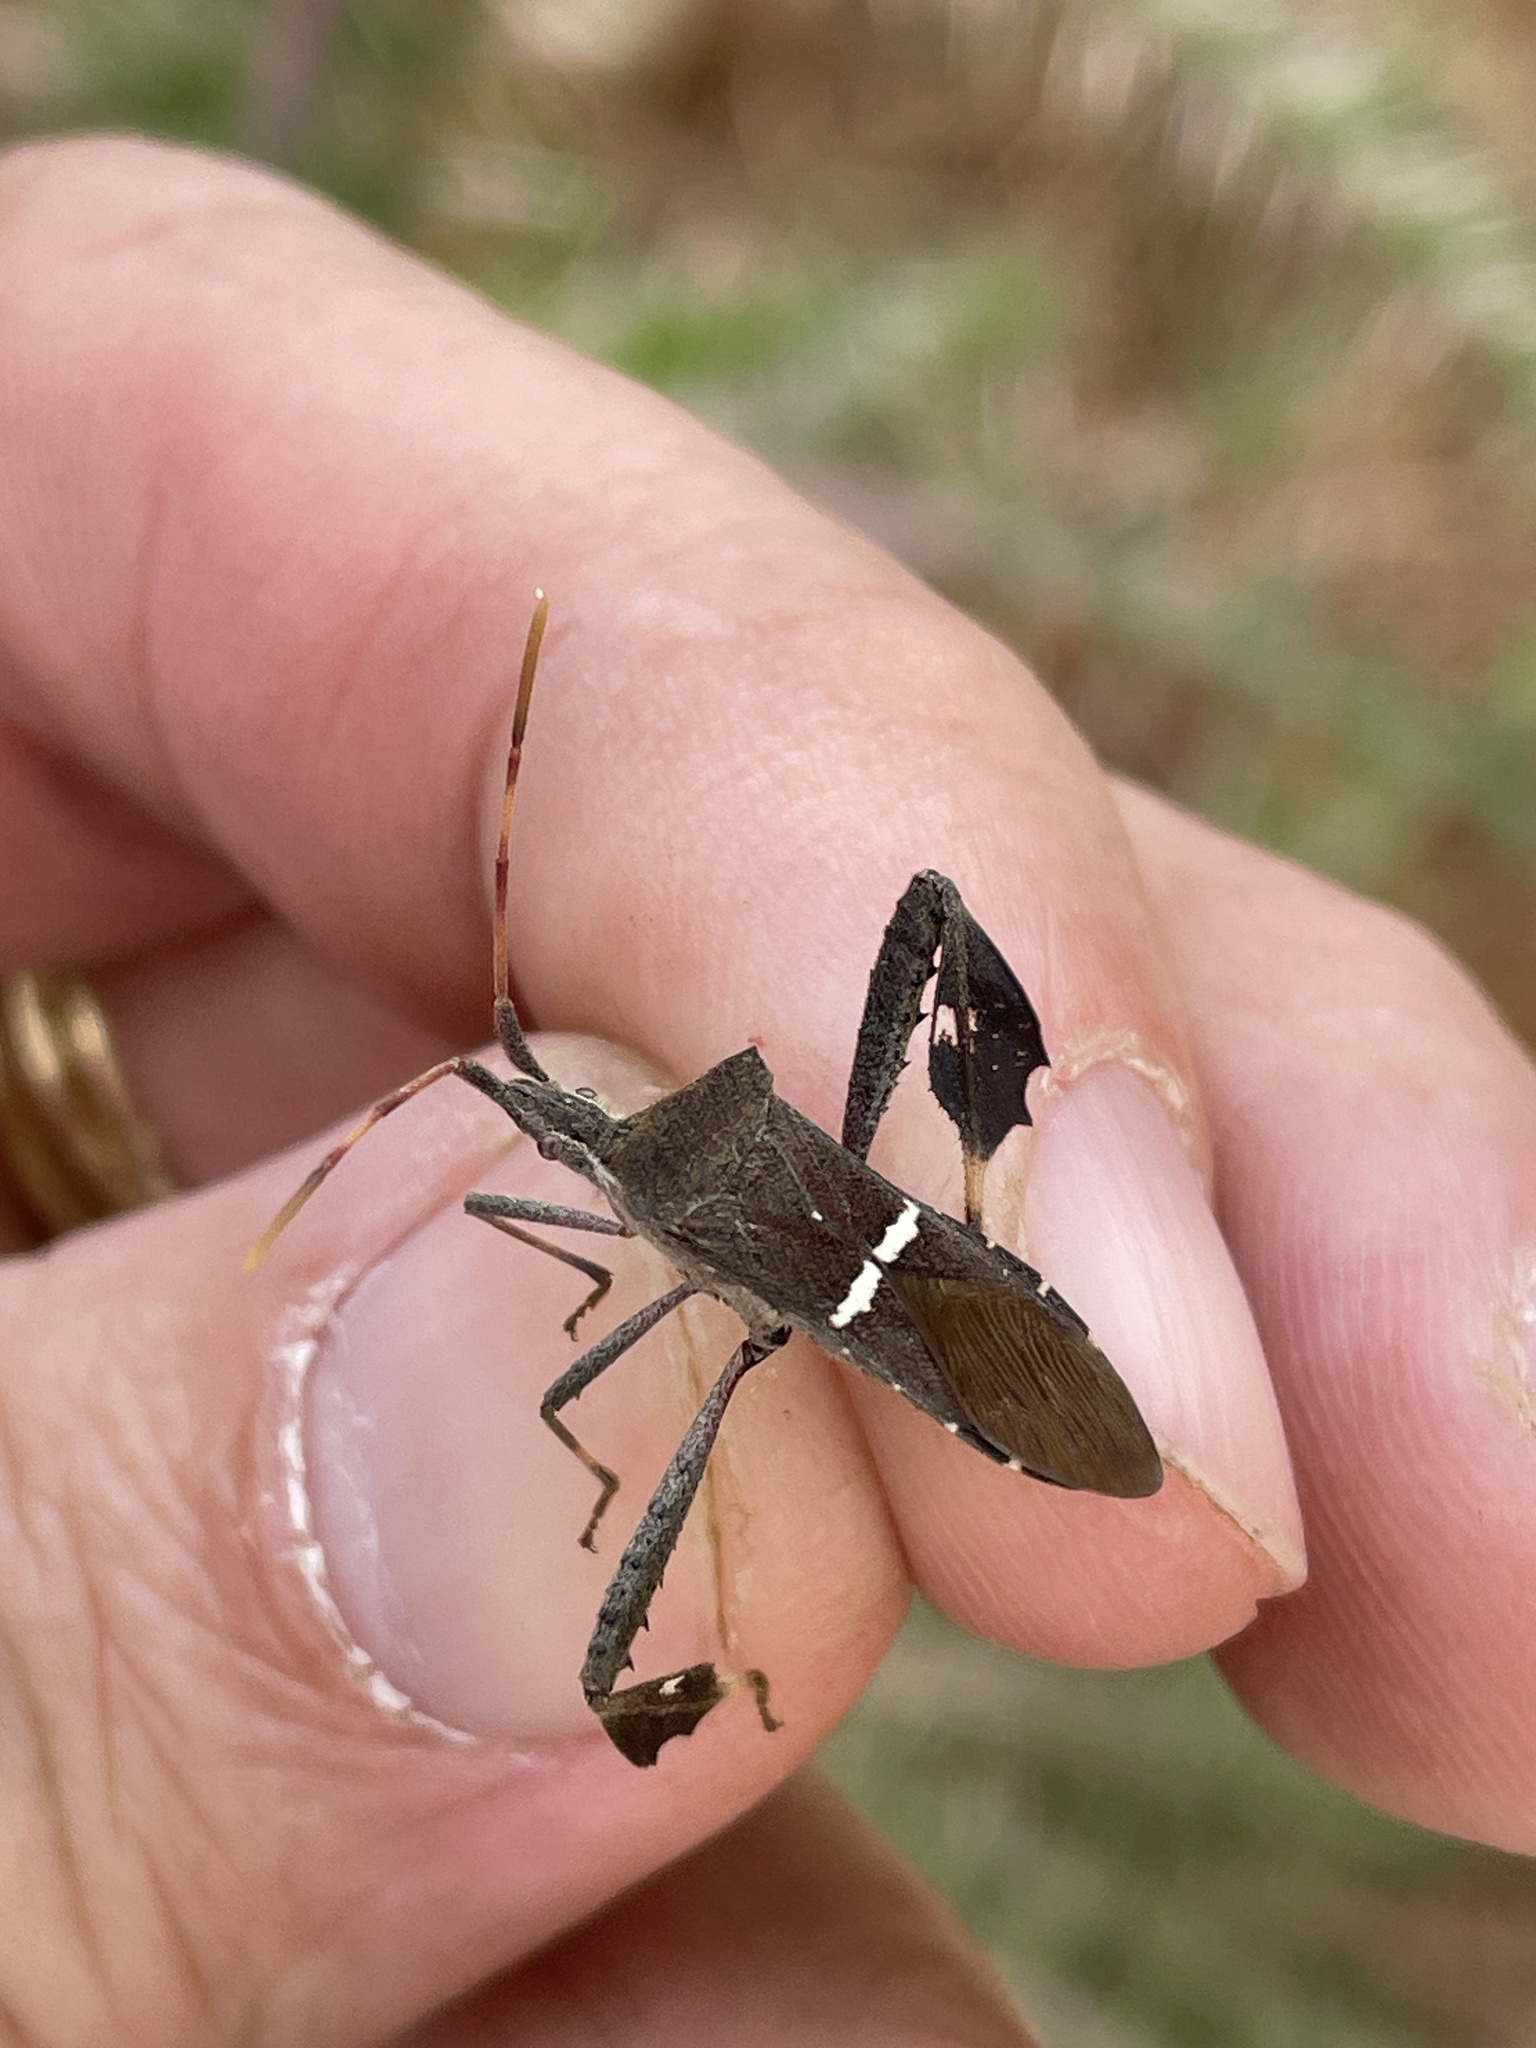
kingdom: Animalia
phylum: Arthropoda
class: Insecta
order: Hemiptera
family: Coreidae
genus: Leptoglossus
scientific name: Leptoglossus phyllopus
